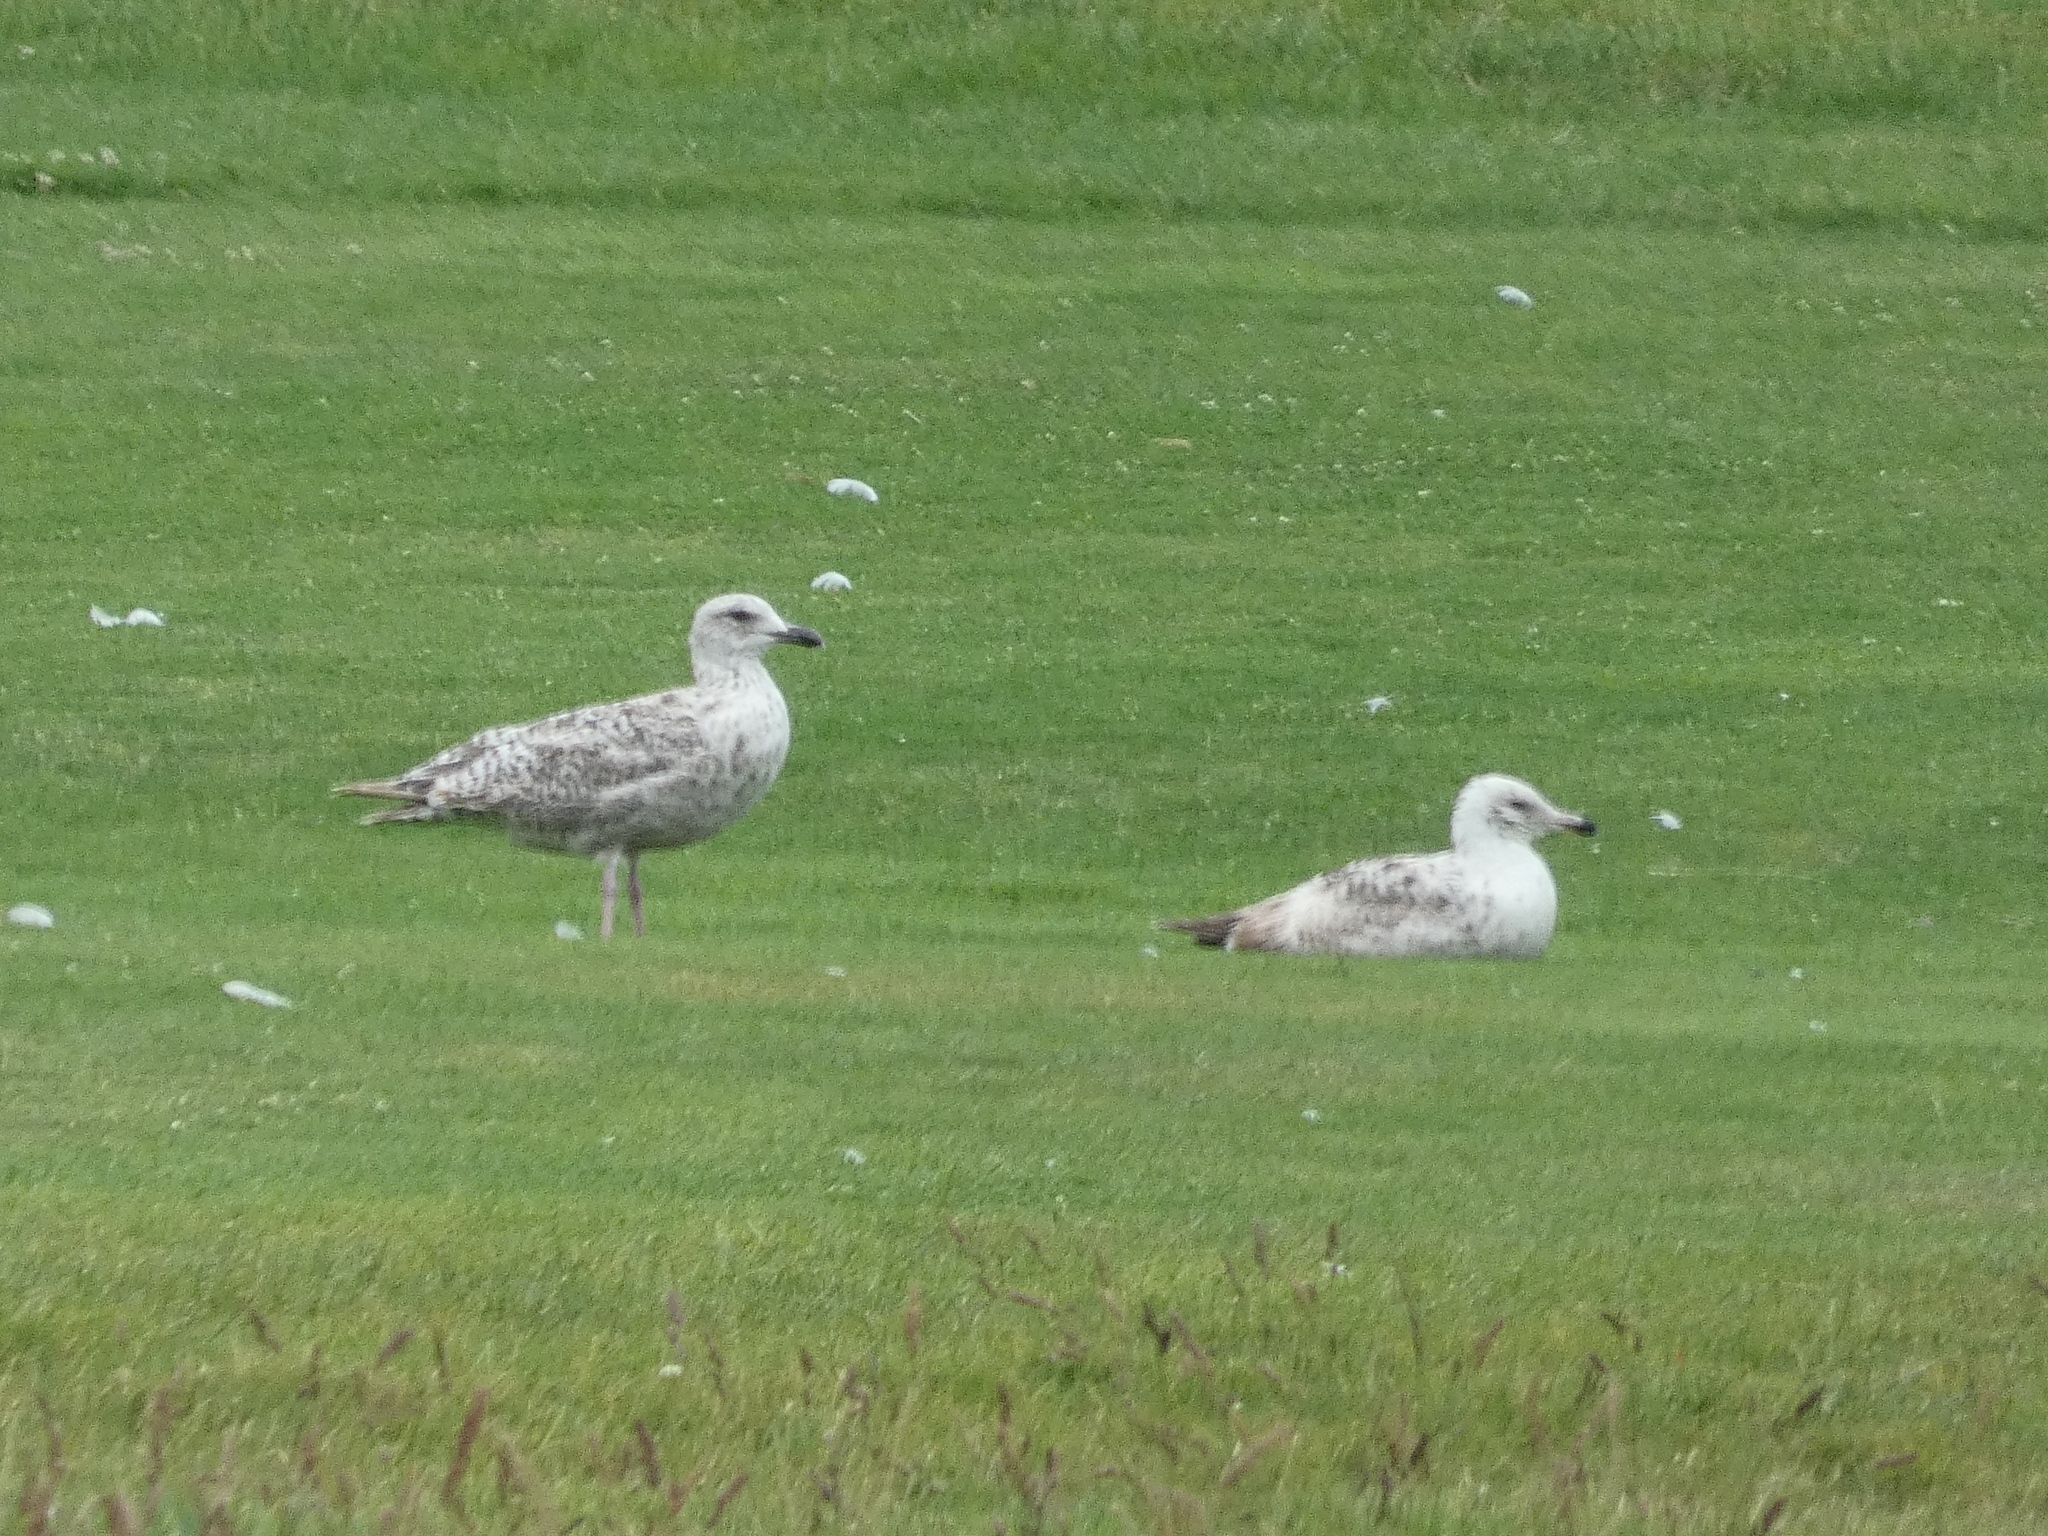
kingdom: Animalia
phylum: Chordata
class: Aves
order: Charadriiformes
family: Laridae
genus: Larus
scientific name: Larus argentatus
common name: Herring gull
